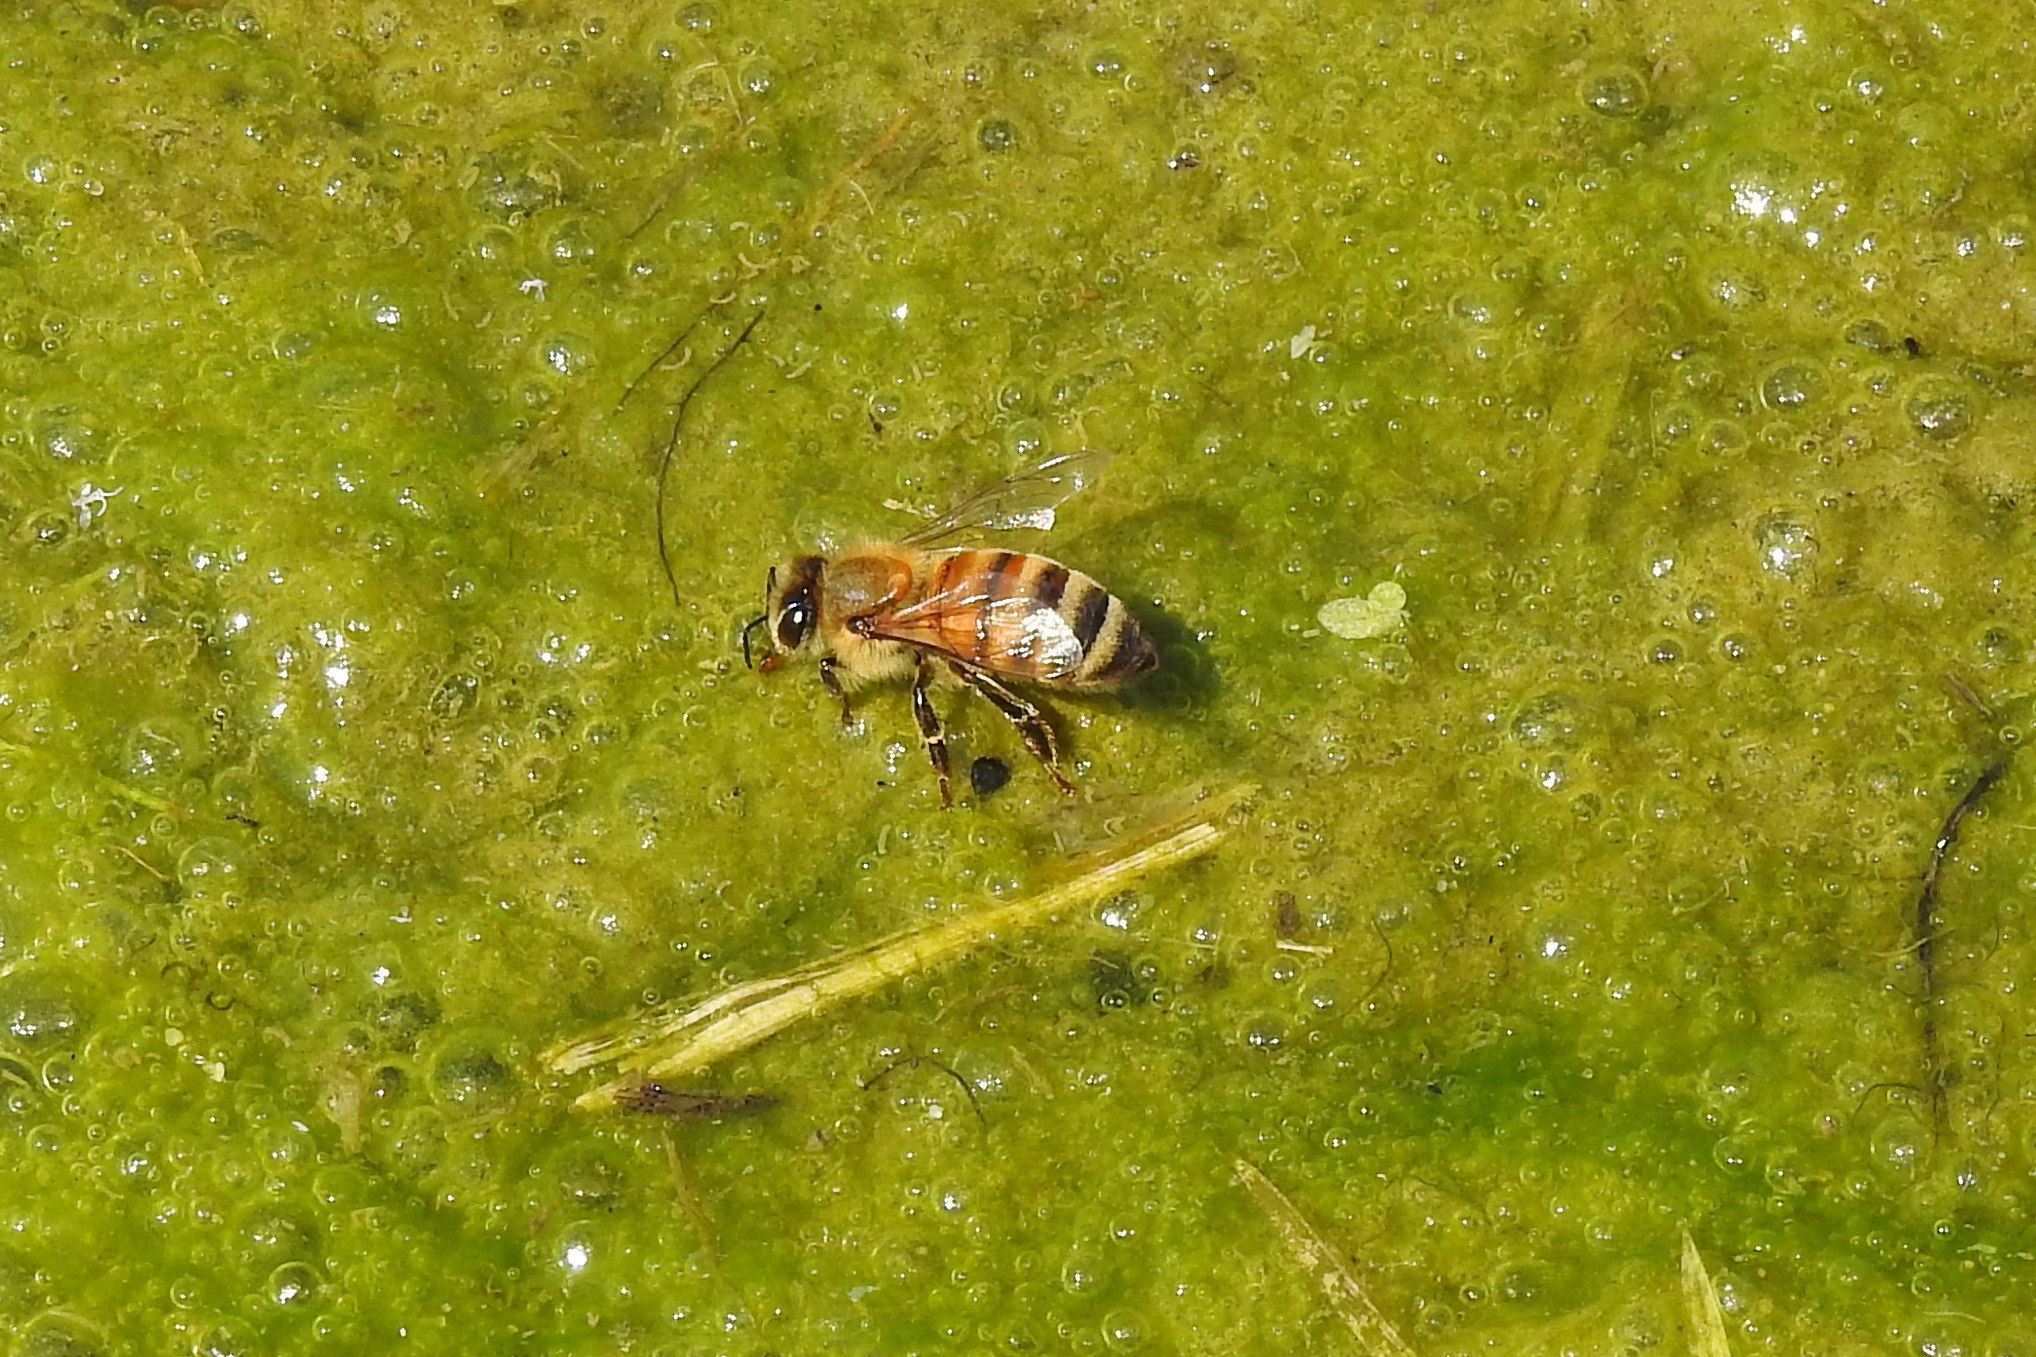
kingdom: Animalia
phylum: Arthropoda
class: Insecta
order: Hymenoptera
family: Apidae
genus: Apis
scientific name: Apis mellifera
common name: Honey bee
